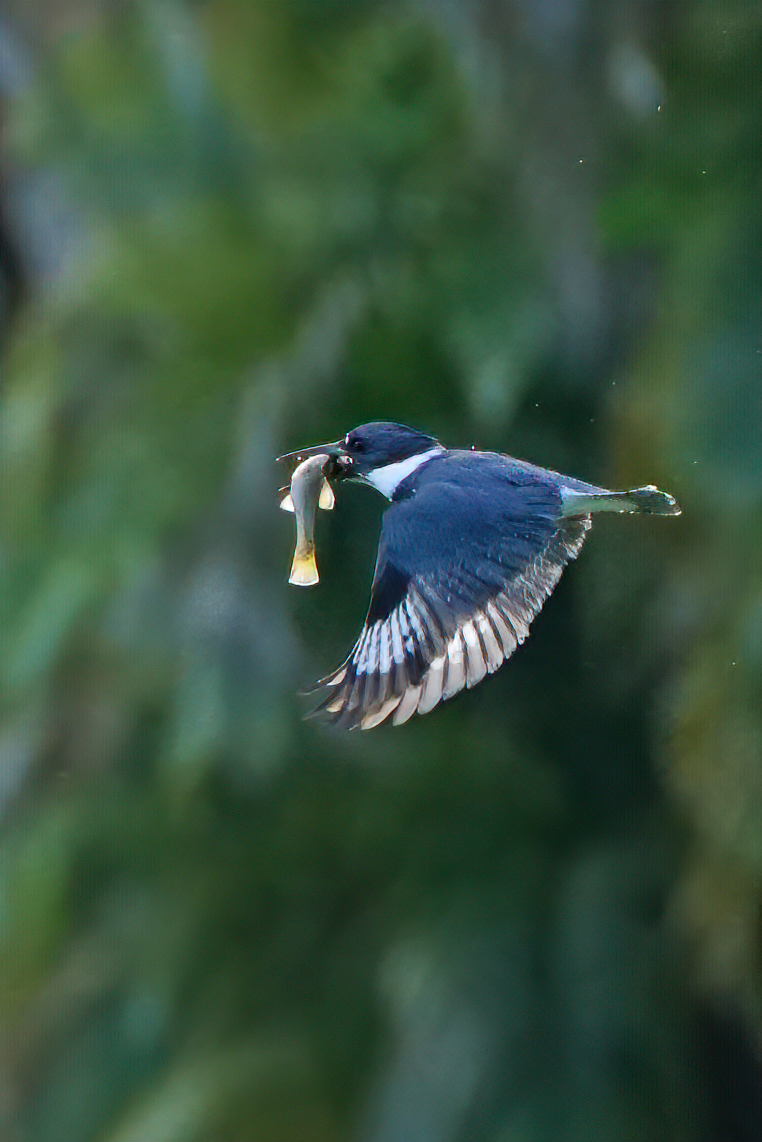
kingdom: Animalia
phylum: Chordata
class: Aves
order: Coraciiformes
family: Alcedinidae
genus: Megaceryle
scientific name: Megaceryle alcyon
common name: Belted kingfisher
